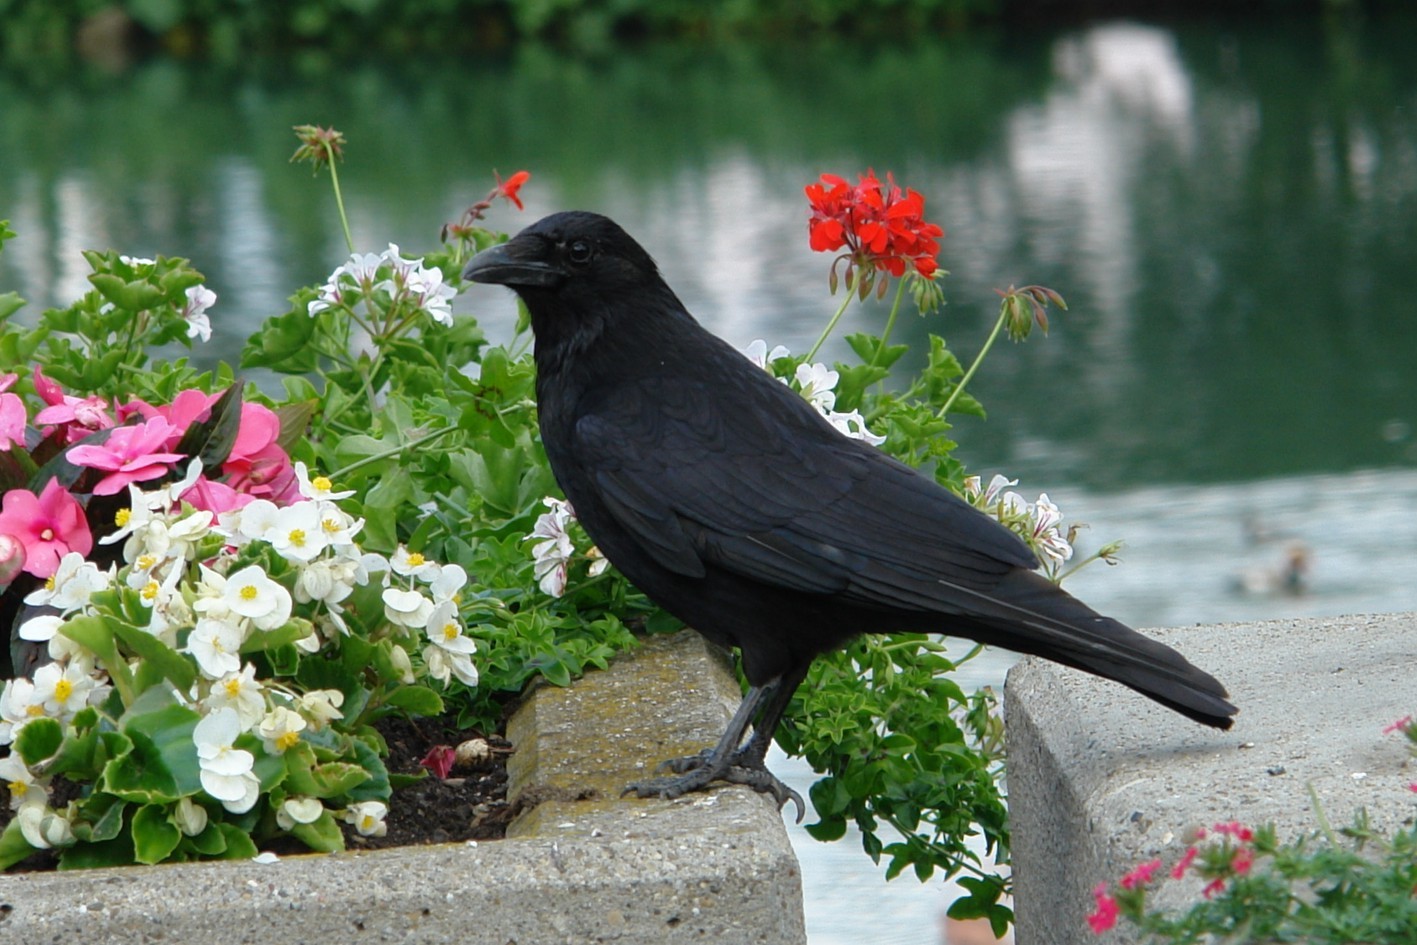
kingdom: Animalia
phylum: Chordata
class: Aves
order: Passeriformes
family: Corvidae
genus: Corvus
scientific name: Corvus corone
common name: Carrion crow
